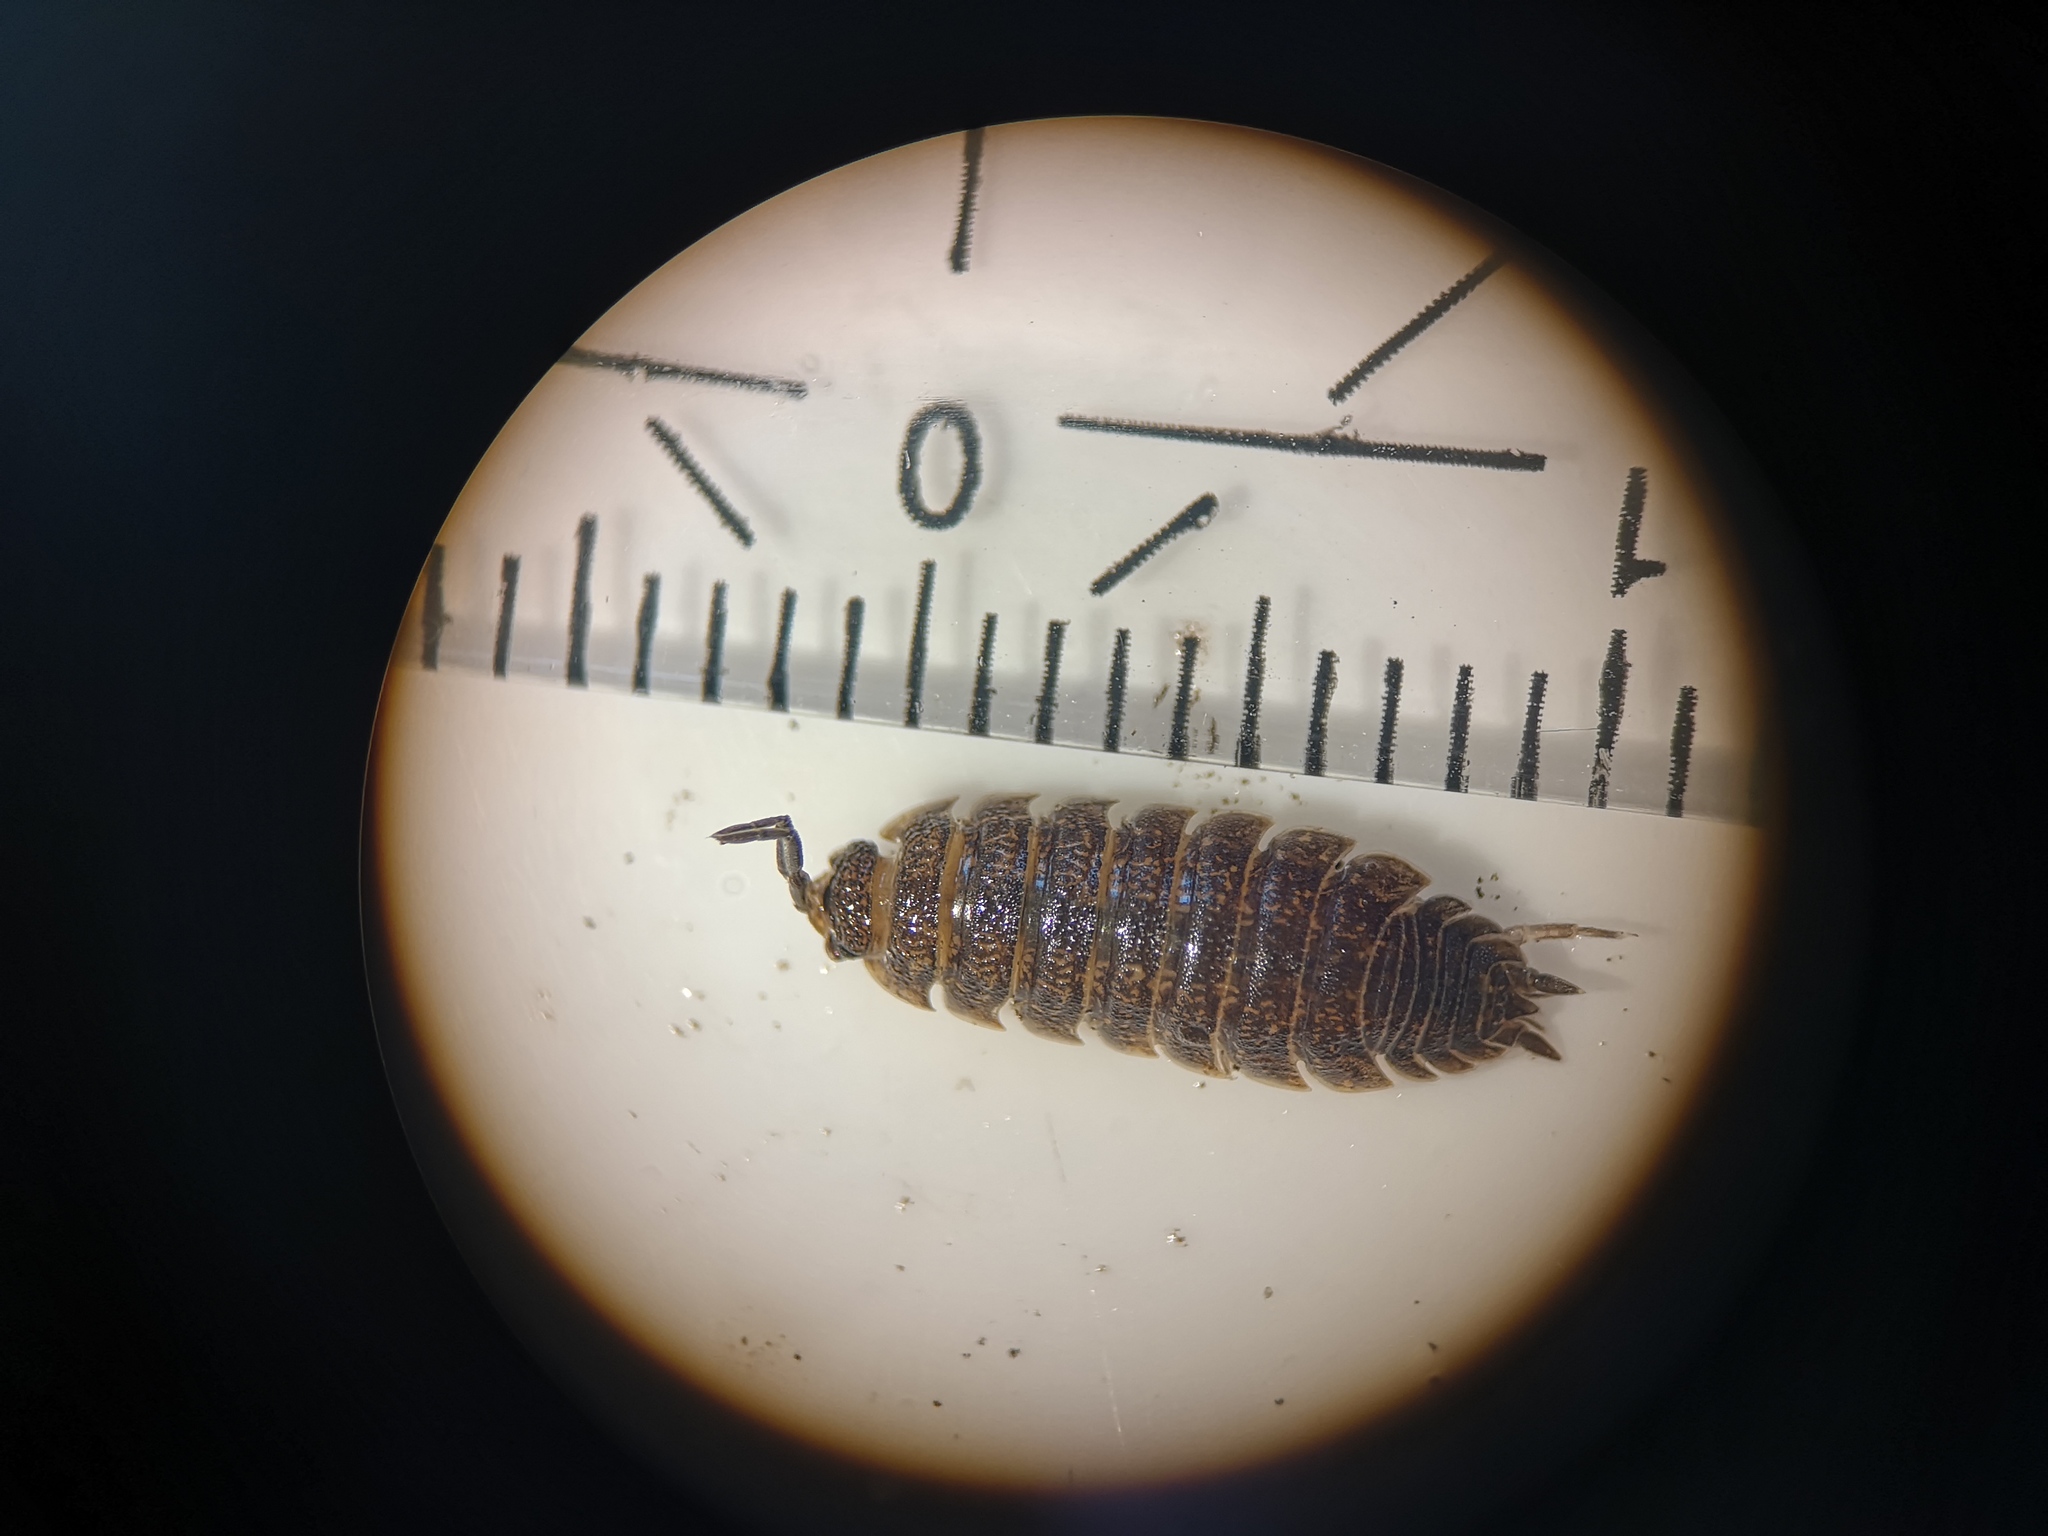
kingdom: Animalia
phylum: Arthropoda
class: Malacostraca
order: Isopoda
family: Porcellionidae
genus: Porcellio
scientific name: Porcellio scaber
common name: Common rough woodlouse
